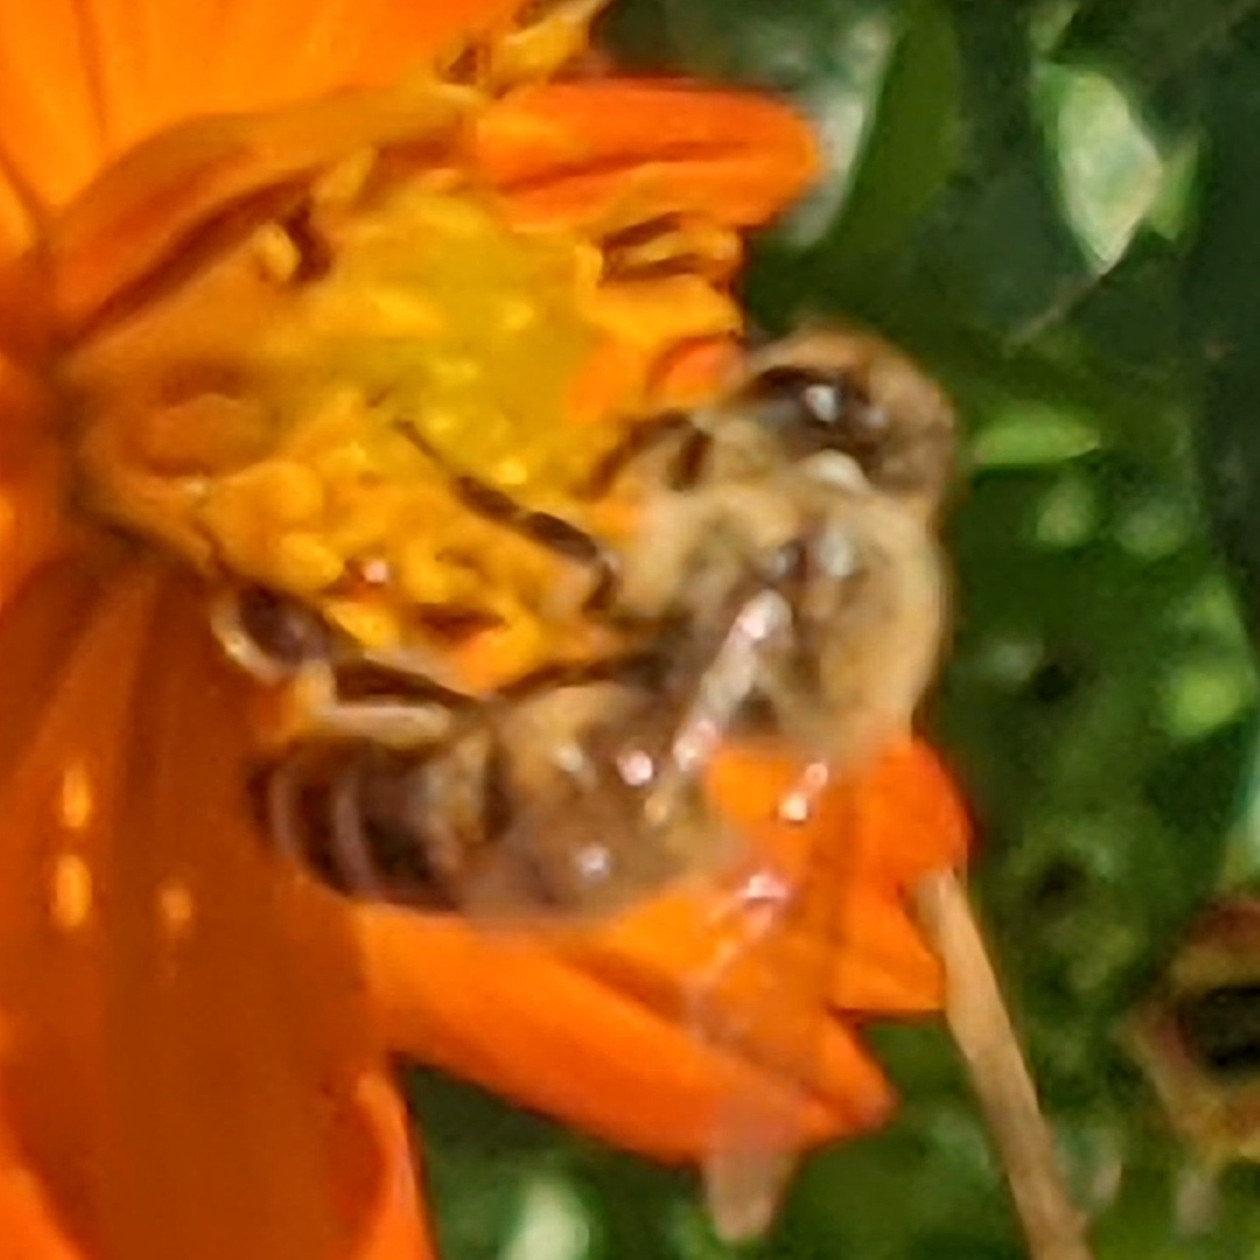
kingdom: Animalia
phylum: Arthropoda
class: Insecta
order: Hymenoptera
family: Apidae
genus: Apis
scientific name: Apis mellifera
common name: Honey bee
